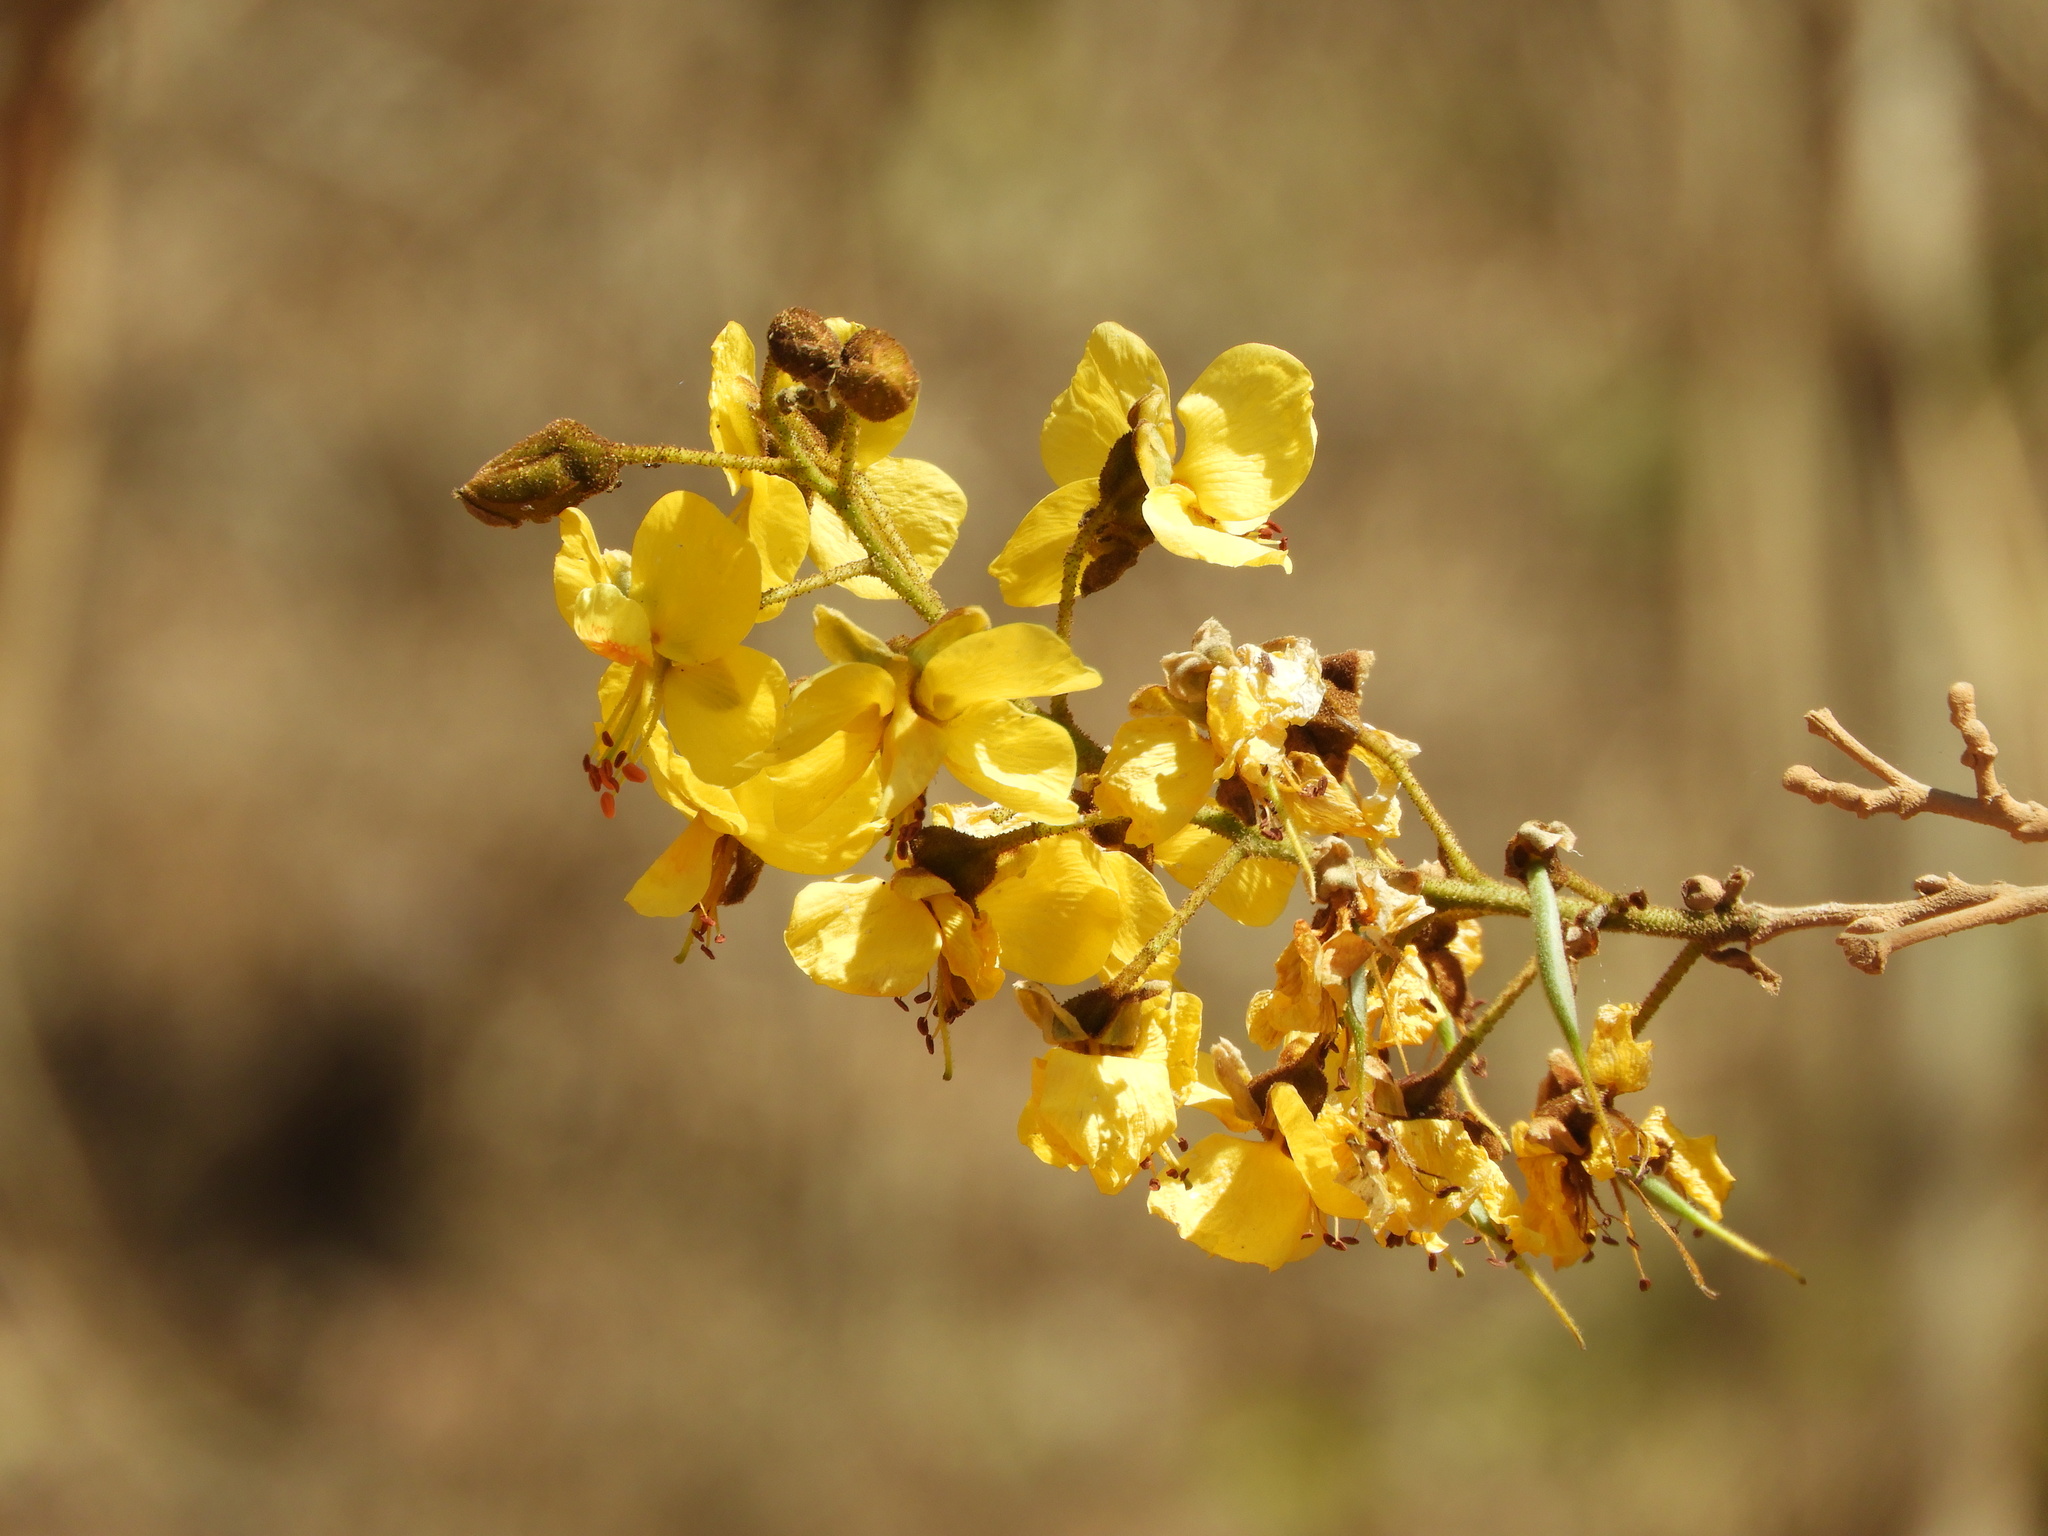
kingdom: Plantae
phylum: Tracheophyta
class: Magnoliopsida
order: Fabales
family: Fabaceae
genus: Cenostigma
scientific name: Cenostigma eriostachys
